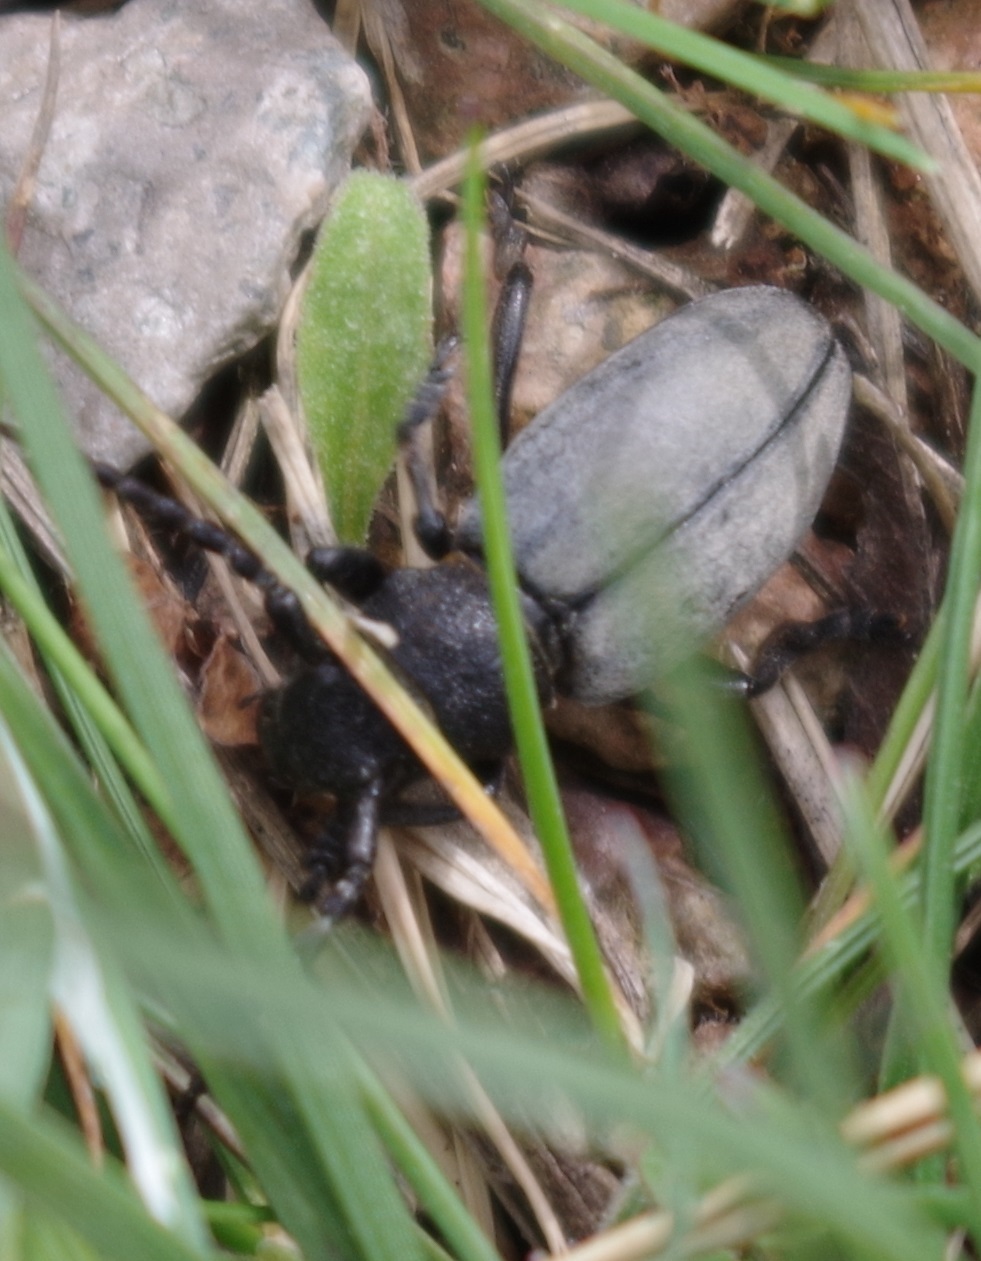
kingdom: Animalia
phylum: Arthropoda
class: Insecta
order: Coleoptera
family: Cerambycidae
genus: Iberodorcadion
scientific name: Iberodorcadion fuliginator
